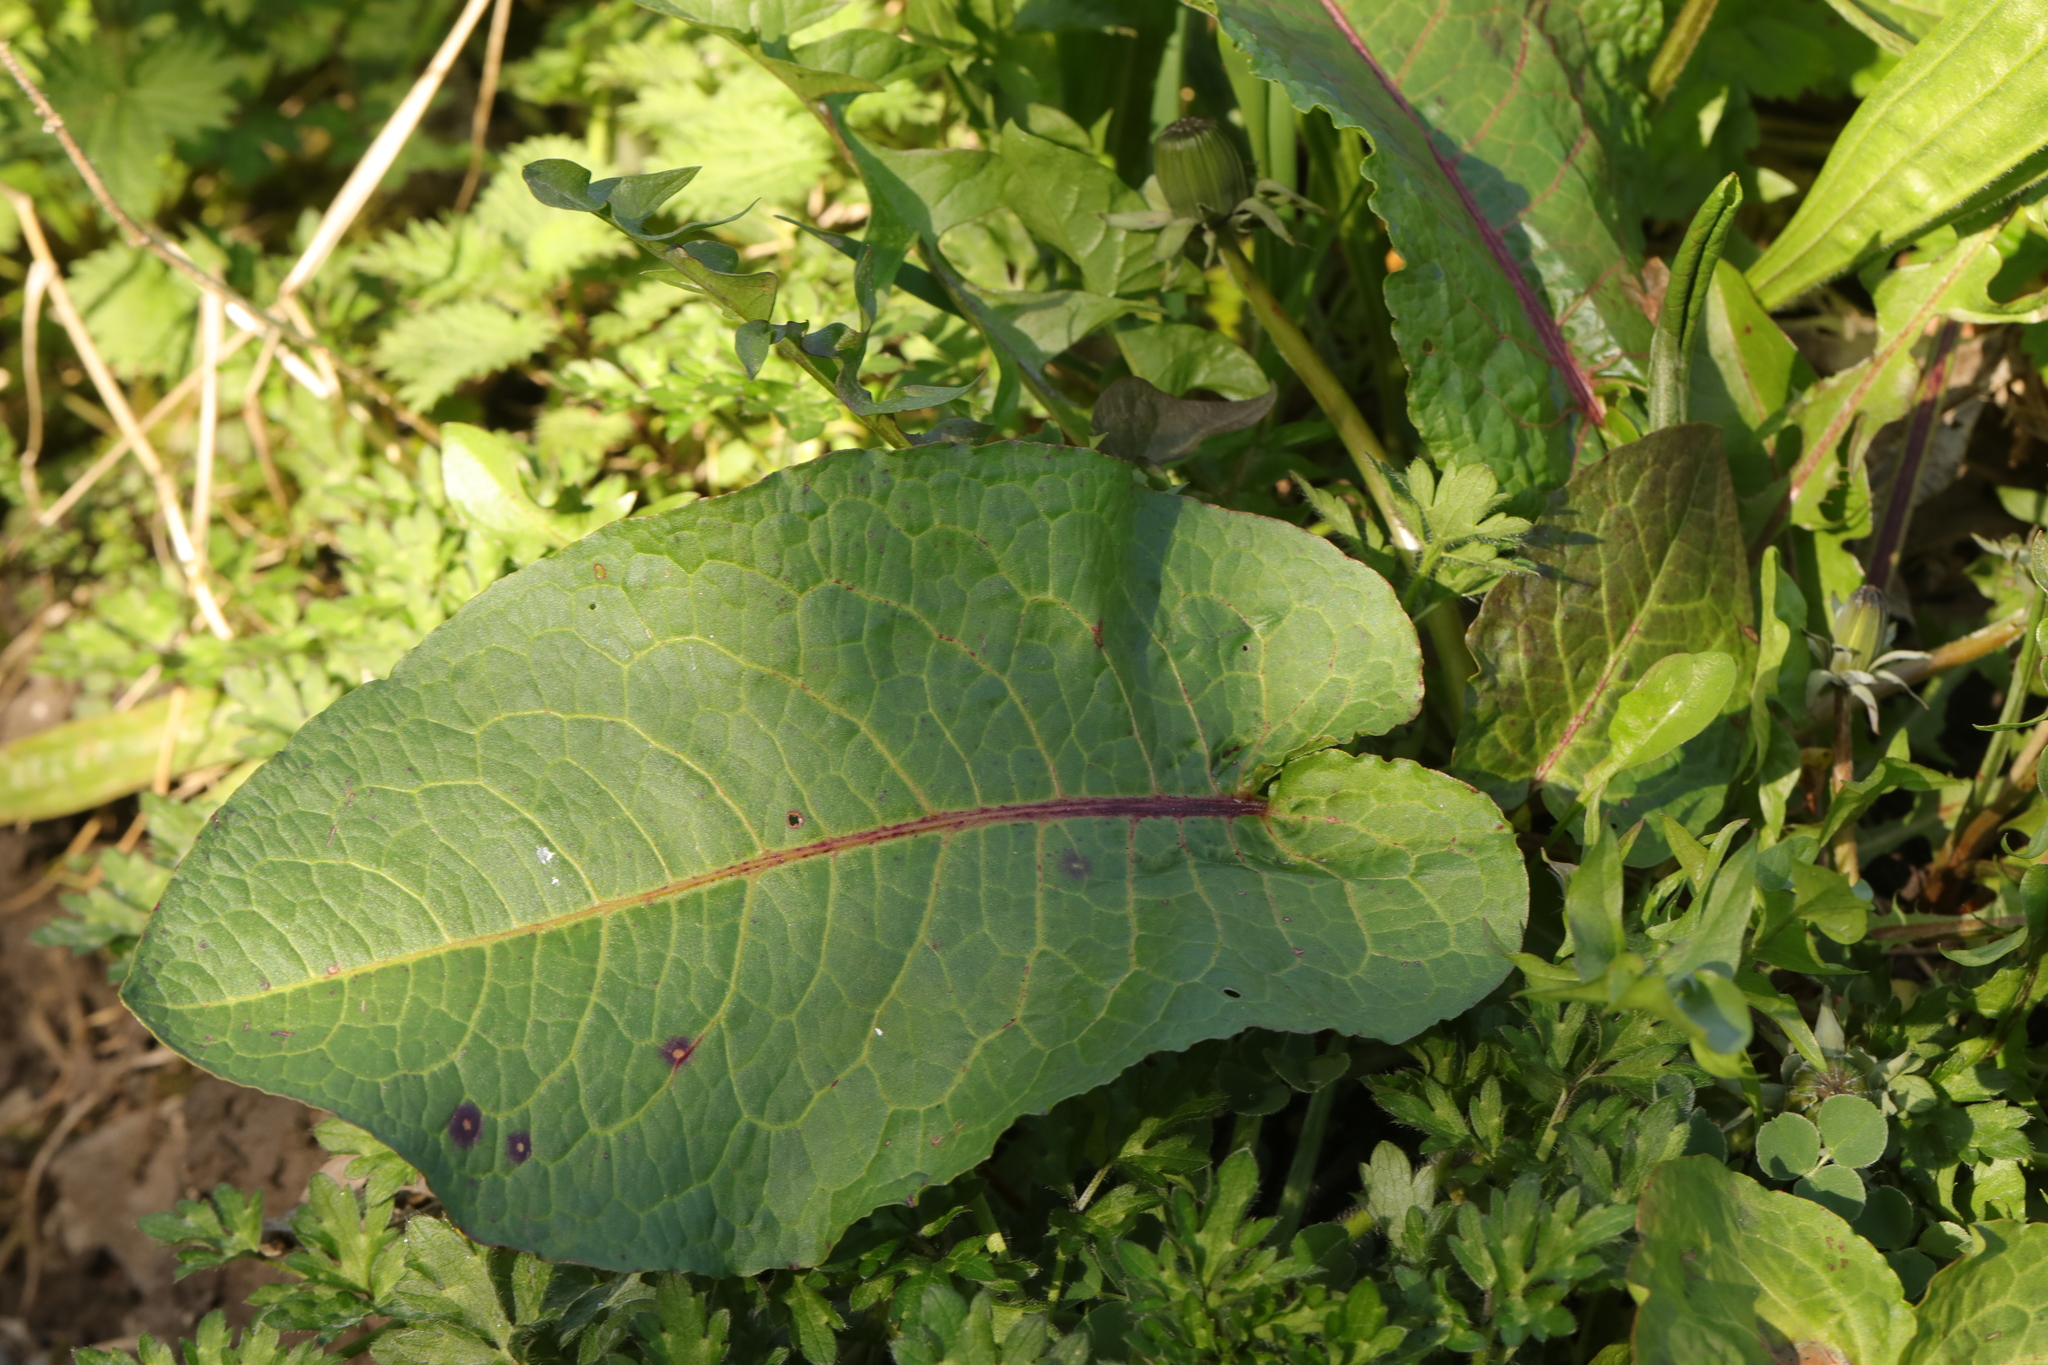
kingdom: Plantae
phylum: Tracheophyta
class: Magnoliopsida
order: Caryophyllales
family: Polygonaceae
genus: Rumex
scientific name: Rumex obtusifolius
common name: Bitter dock
